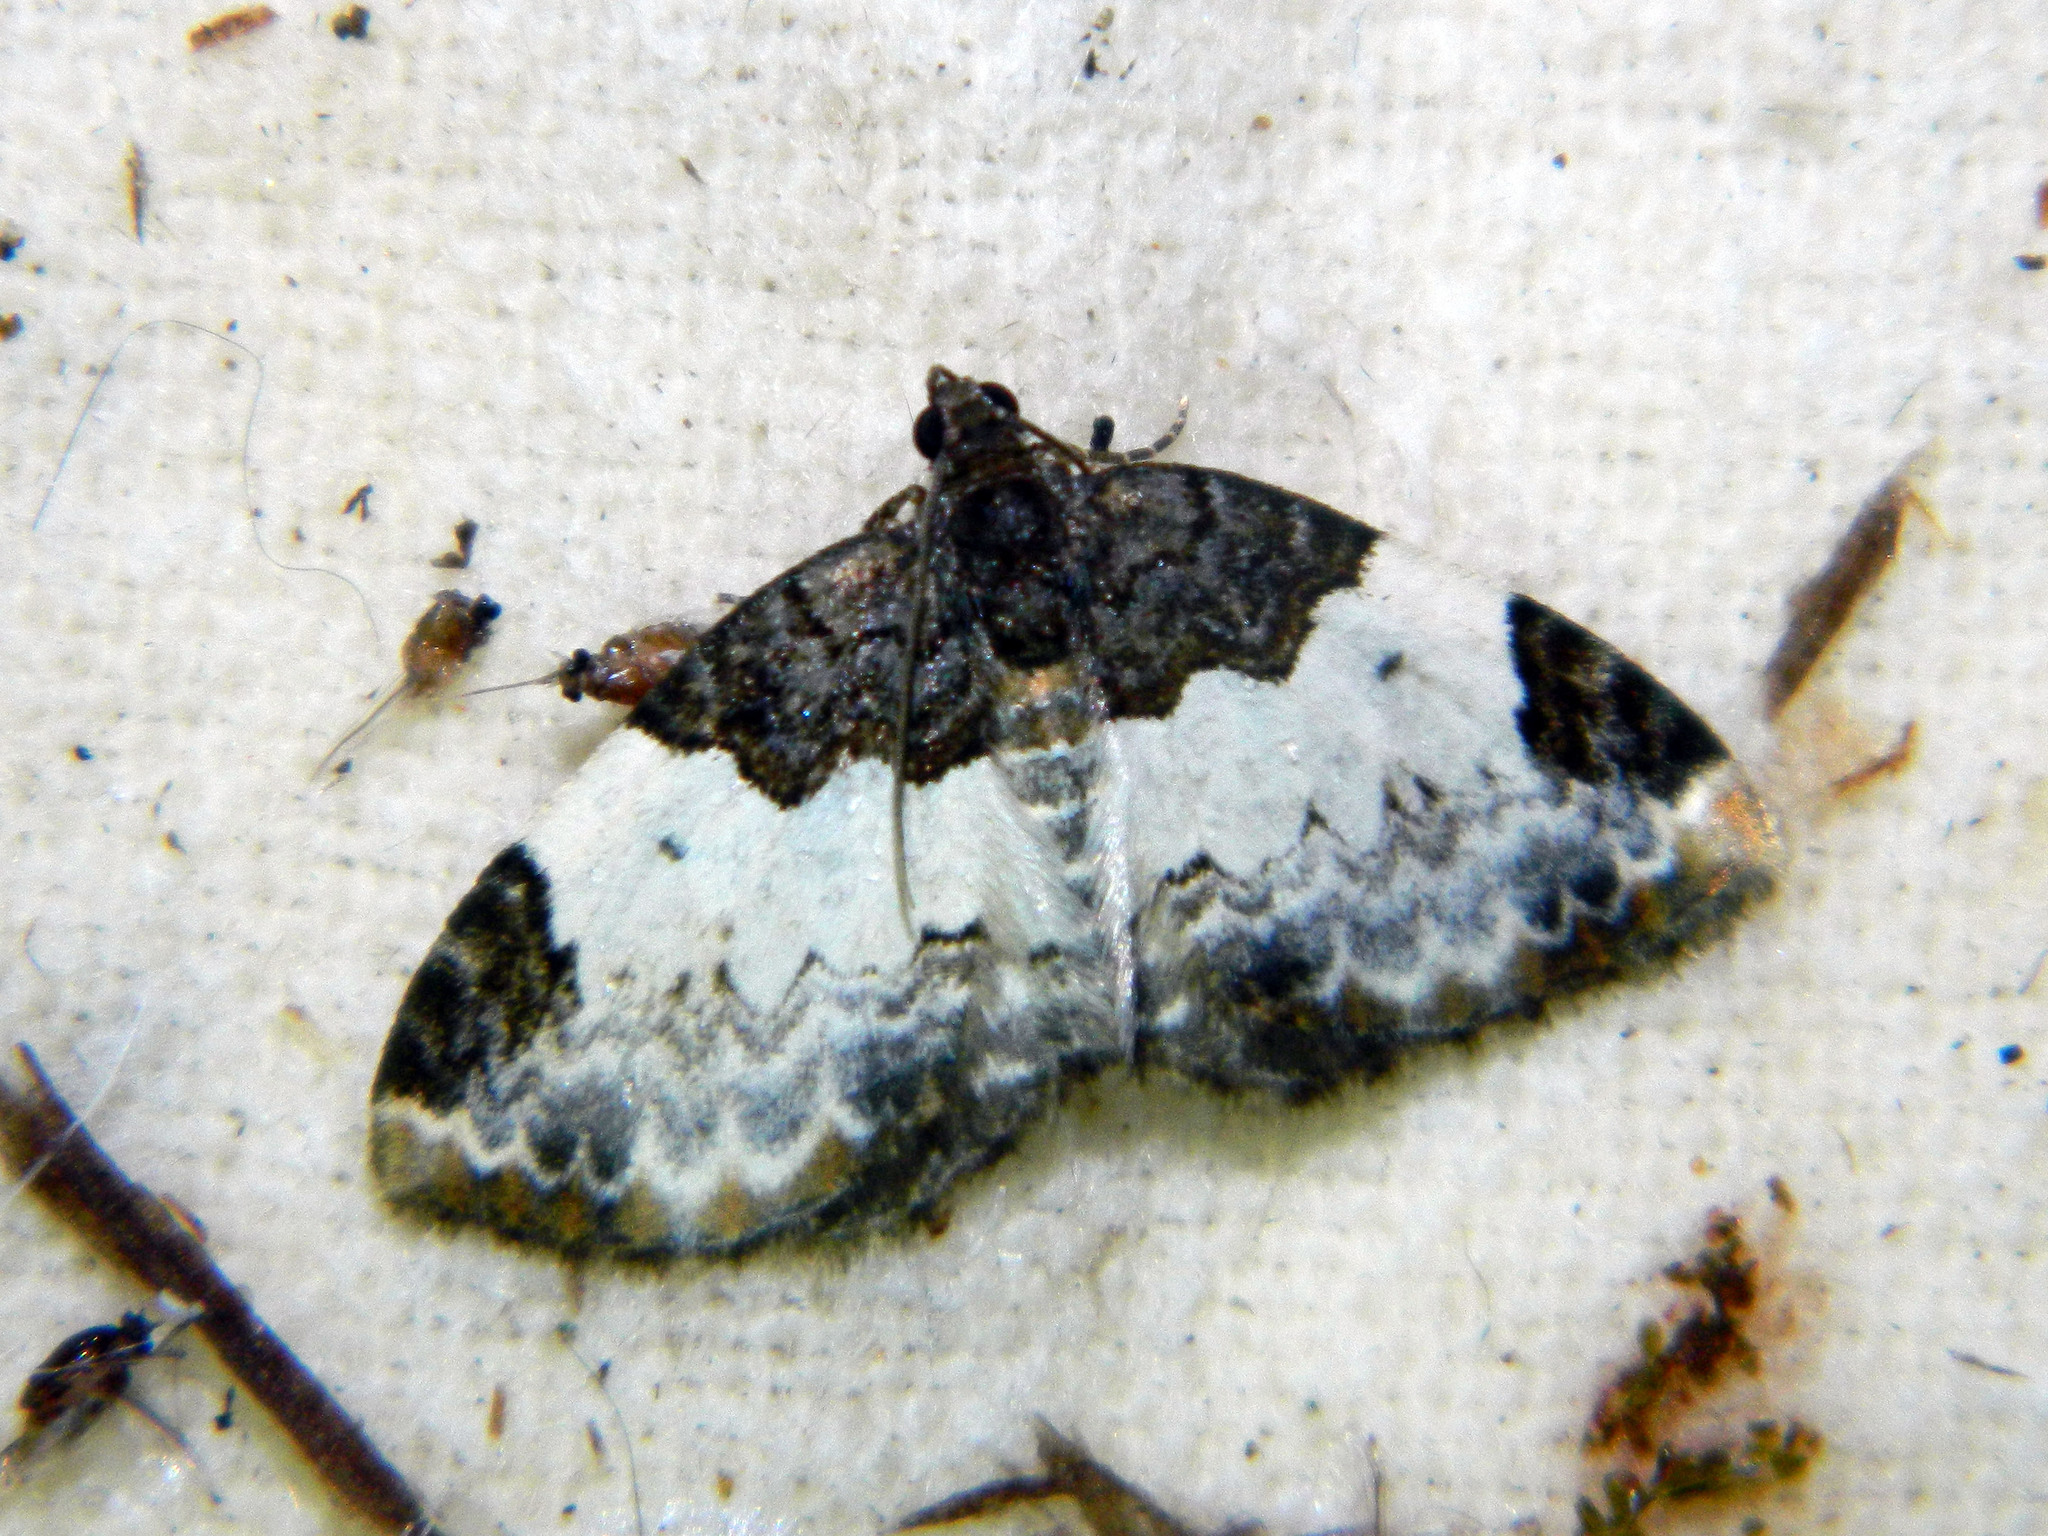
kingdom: Animalia
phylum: Arthropoda
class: Insecta
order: Lepidoptera
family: Geometridae
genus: Mesoleuca
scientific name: Mesoleuca ruficillata
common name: White-ribboned carpet moth
